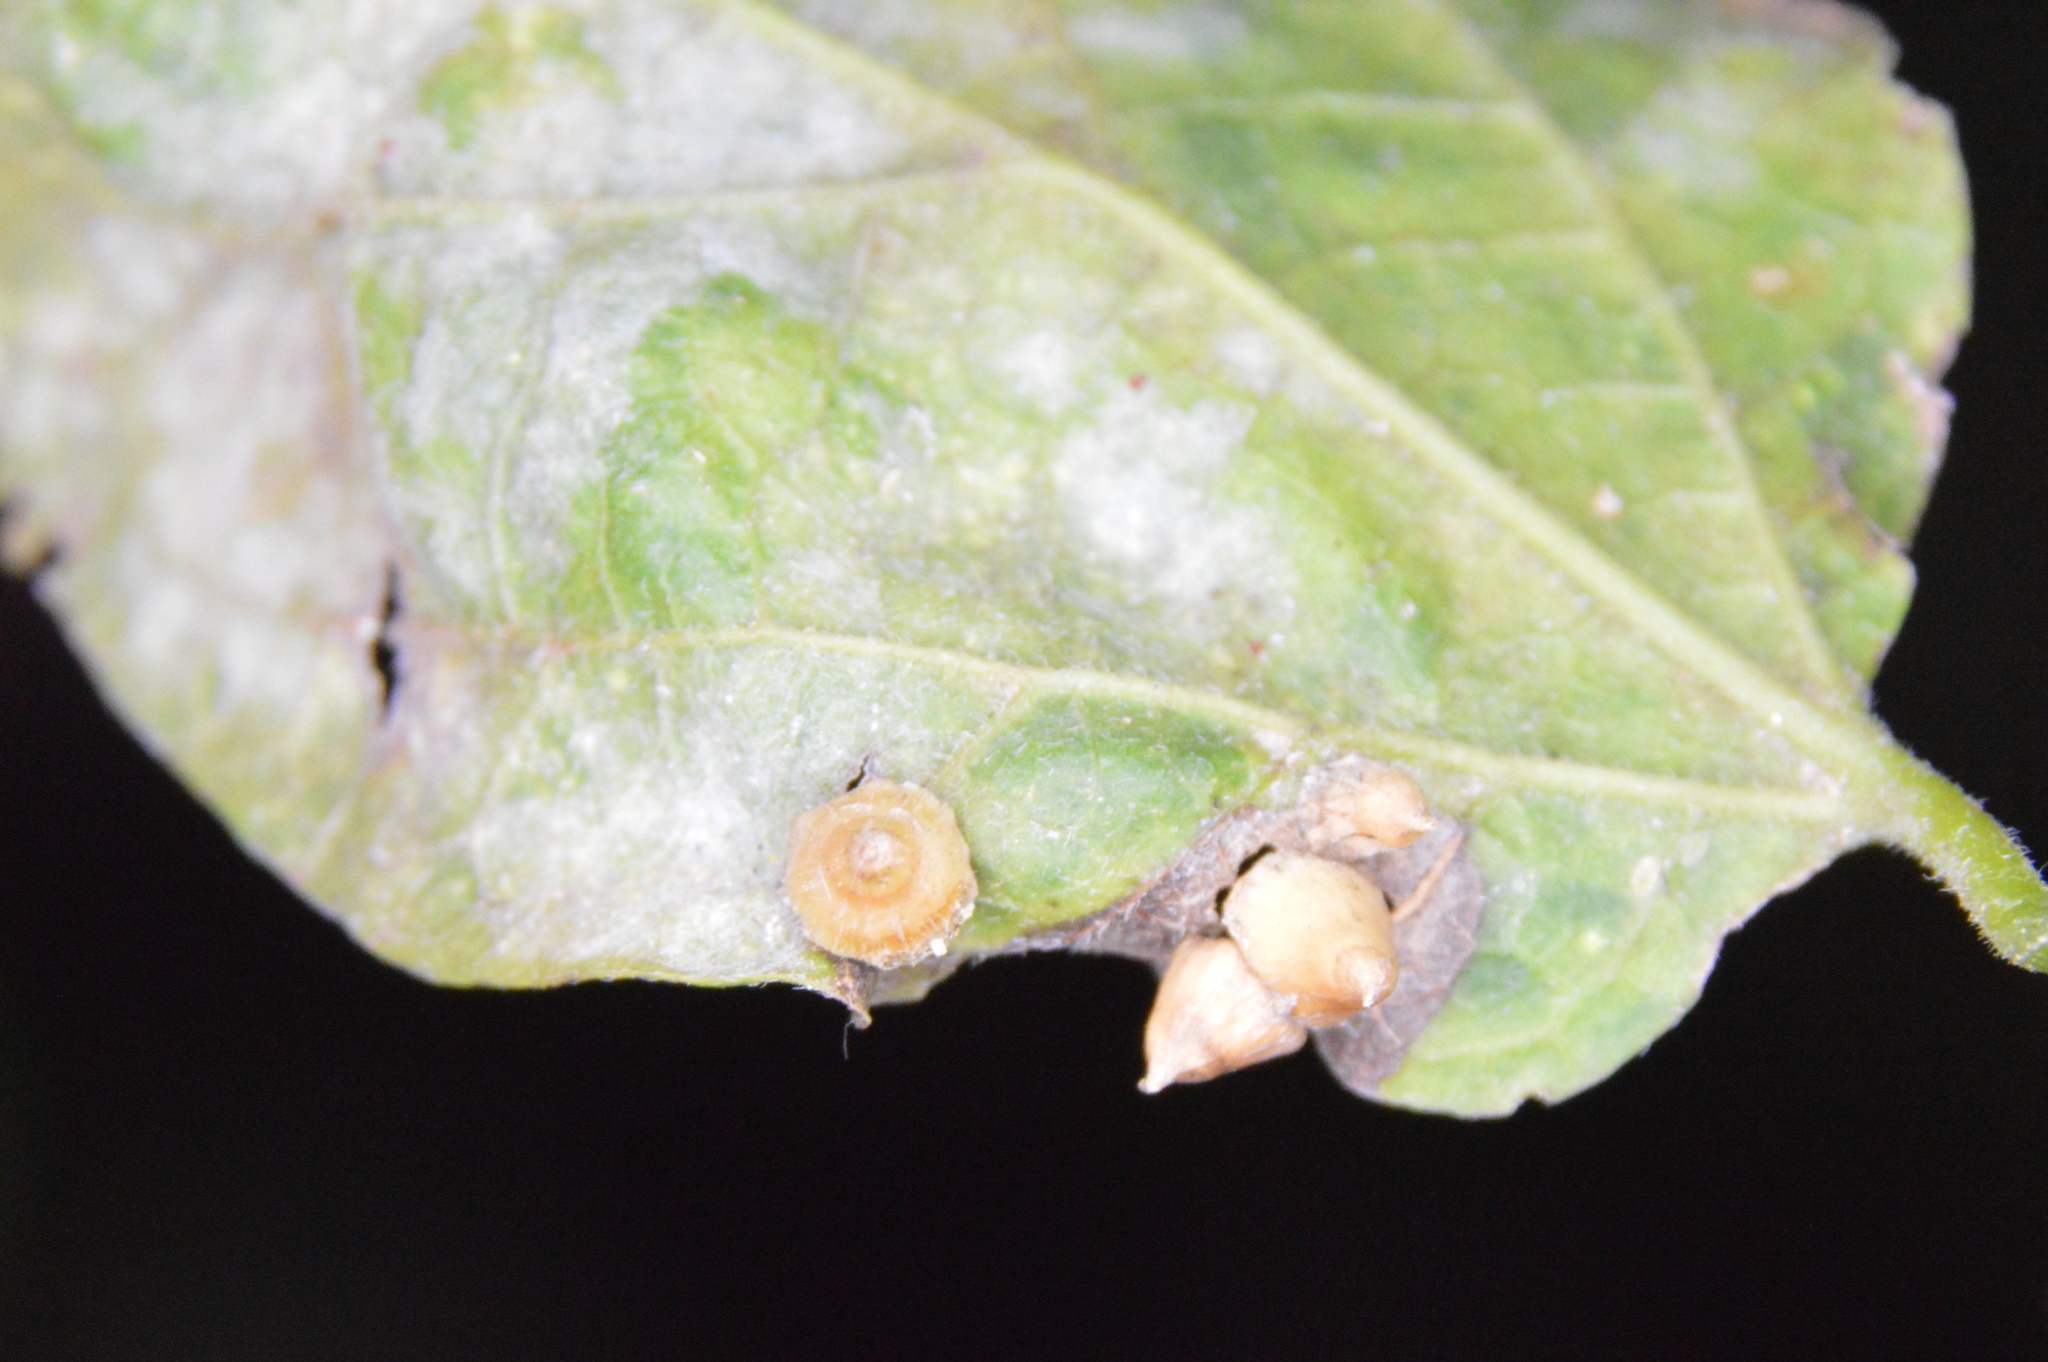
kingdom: Animalia
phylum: Arthropoda
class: Insecta
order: Diptera
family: Cecidomyiidae
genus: Celticecis
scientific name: Celticecis spiniformis
